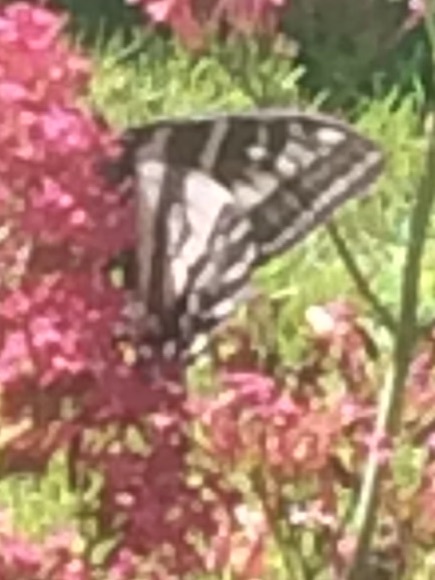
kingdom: Animalia
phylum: Arthropoda
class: Insecta
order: Lepidoptera
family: Papilionidae
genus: Papilio
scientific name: Papilio eurymedon
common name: Pale tiger swallowtail
